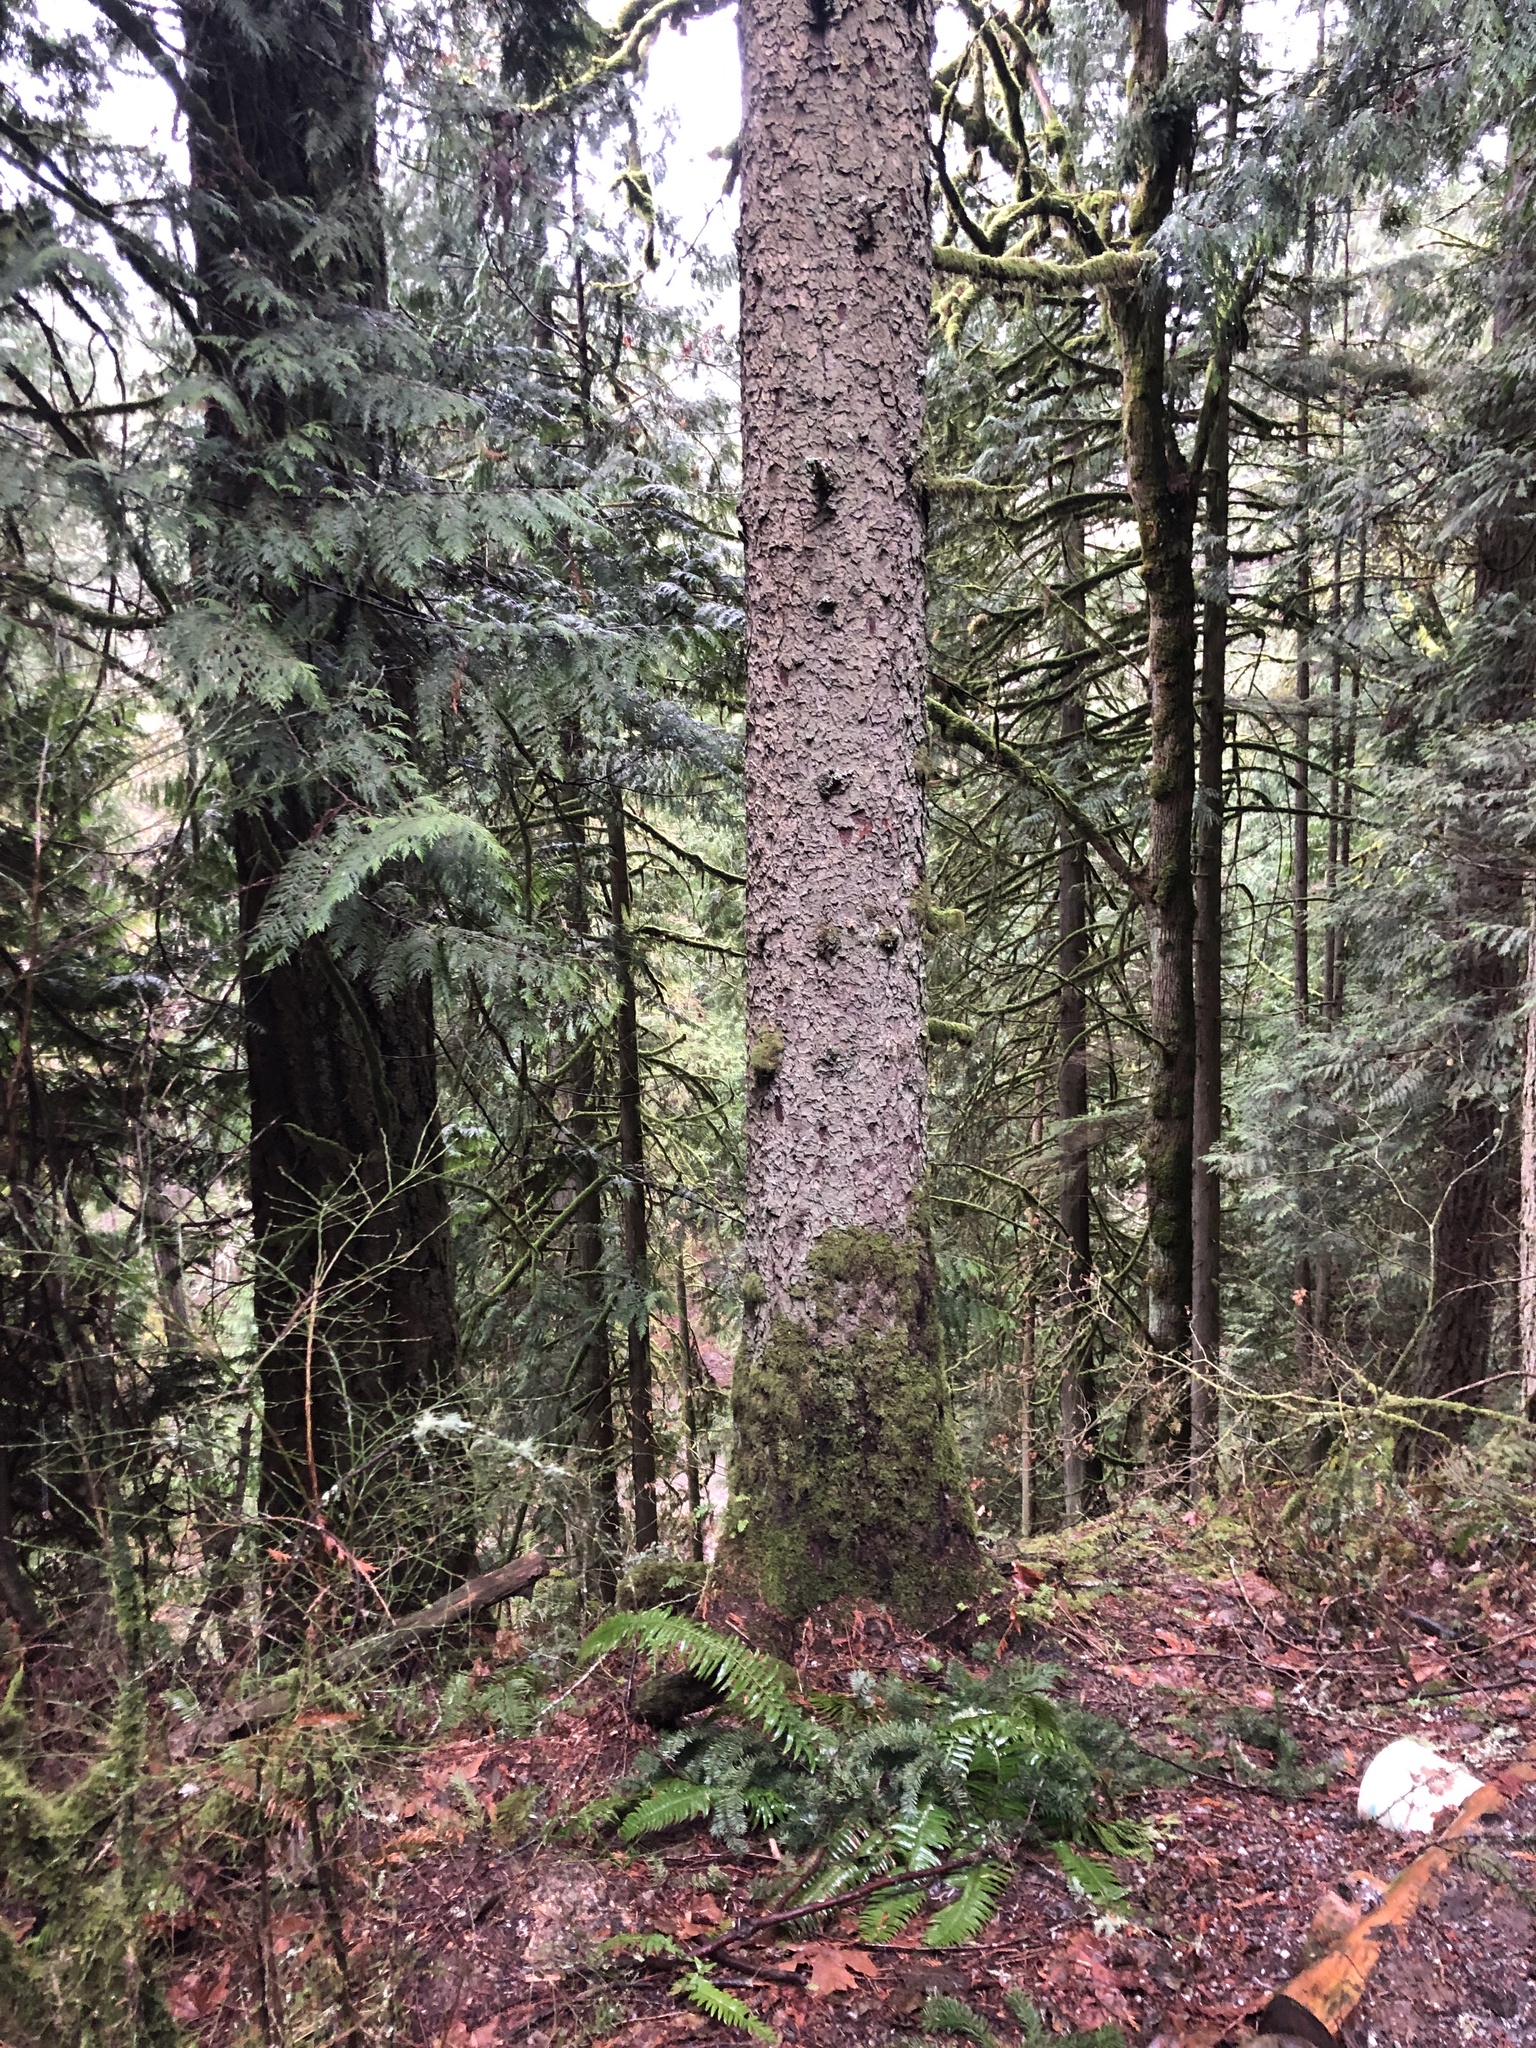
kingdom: Plantae
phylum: Tracheophyta
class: Pinopsida
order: Pinales
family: Pinaceae
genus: Picea
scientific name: Picea sitchensis
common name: Sitka spruce
